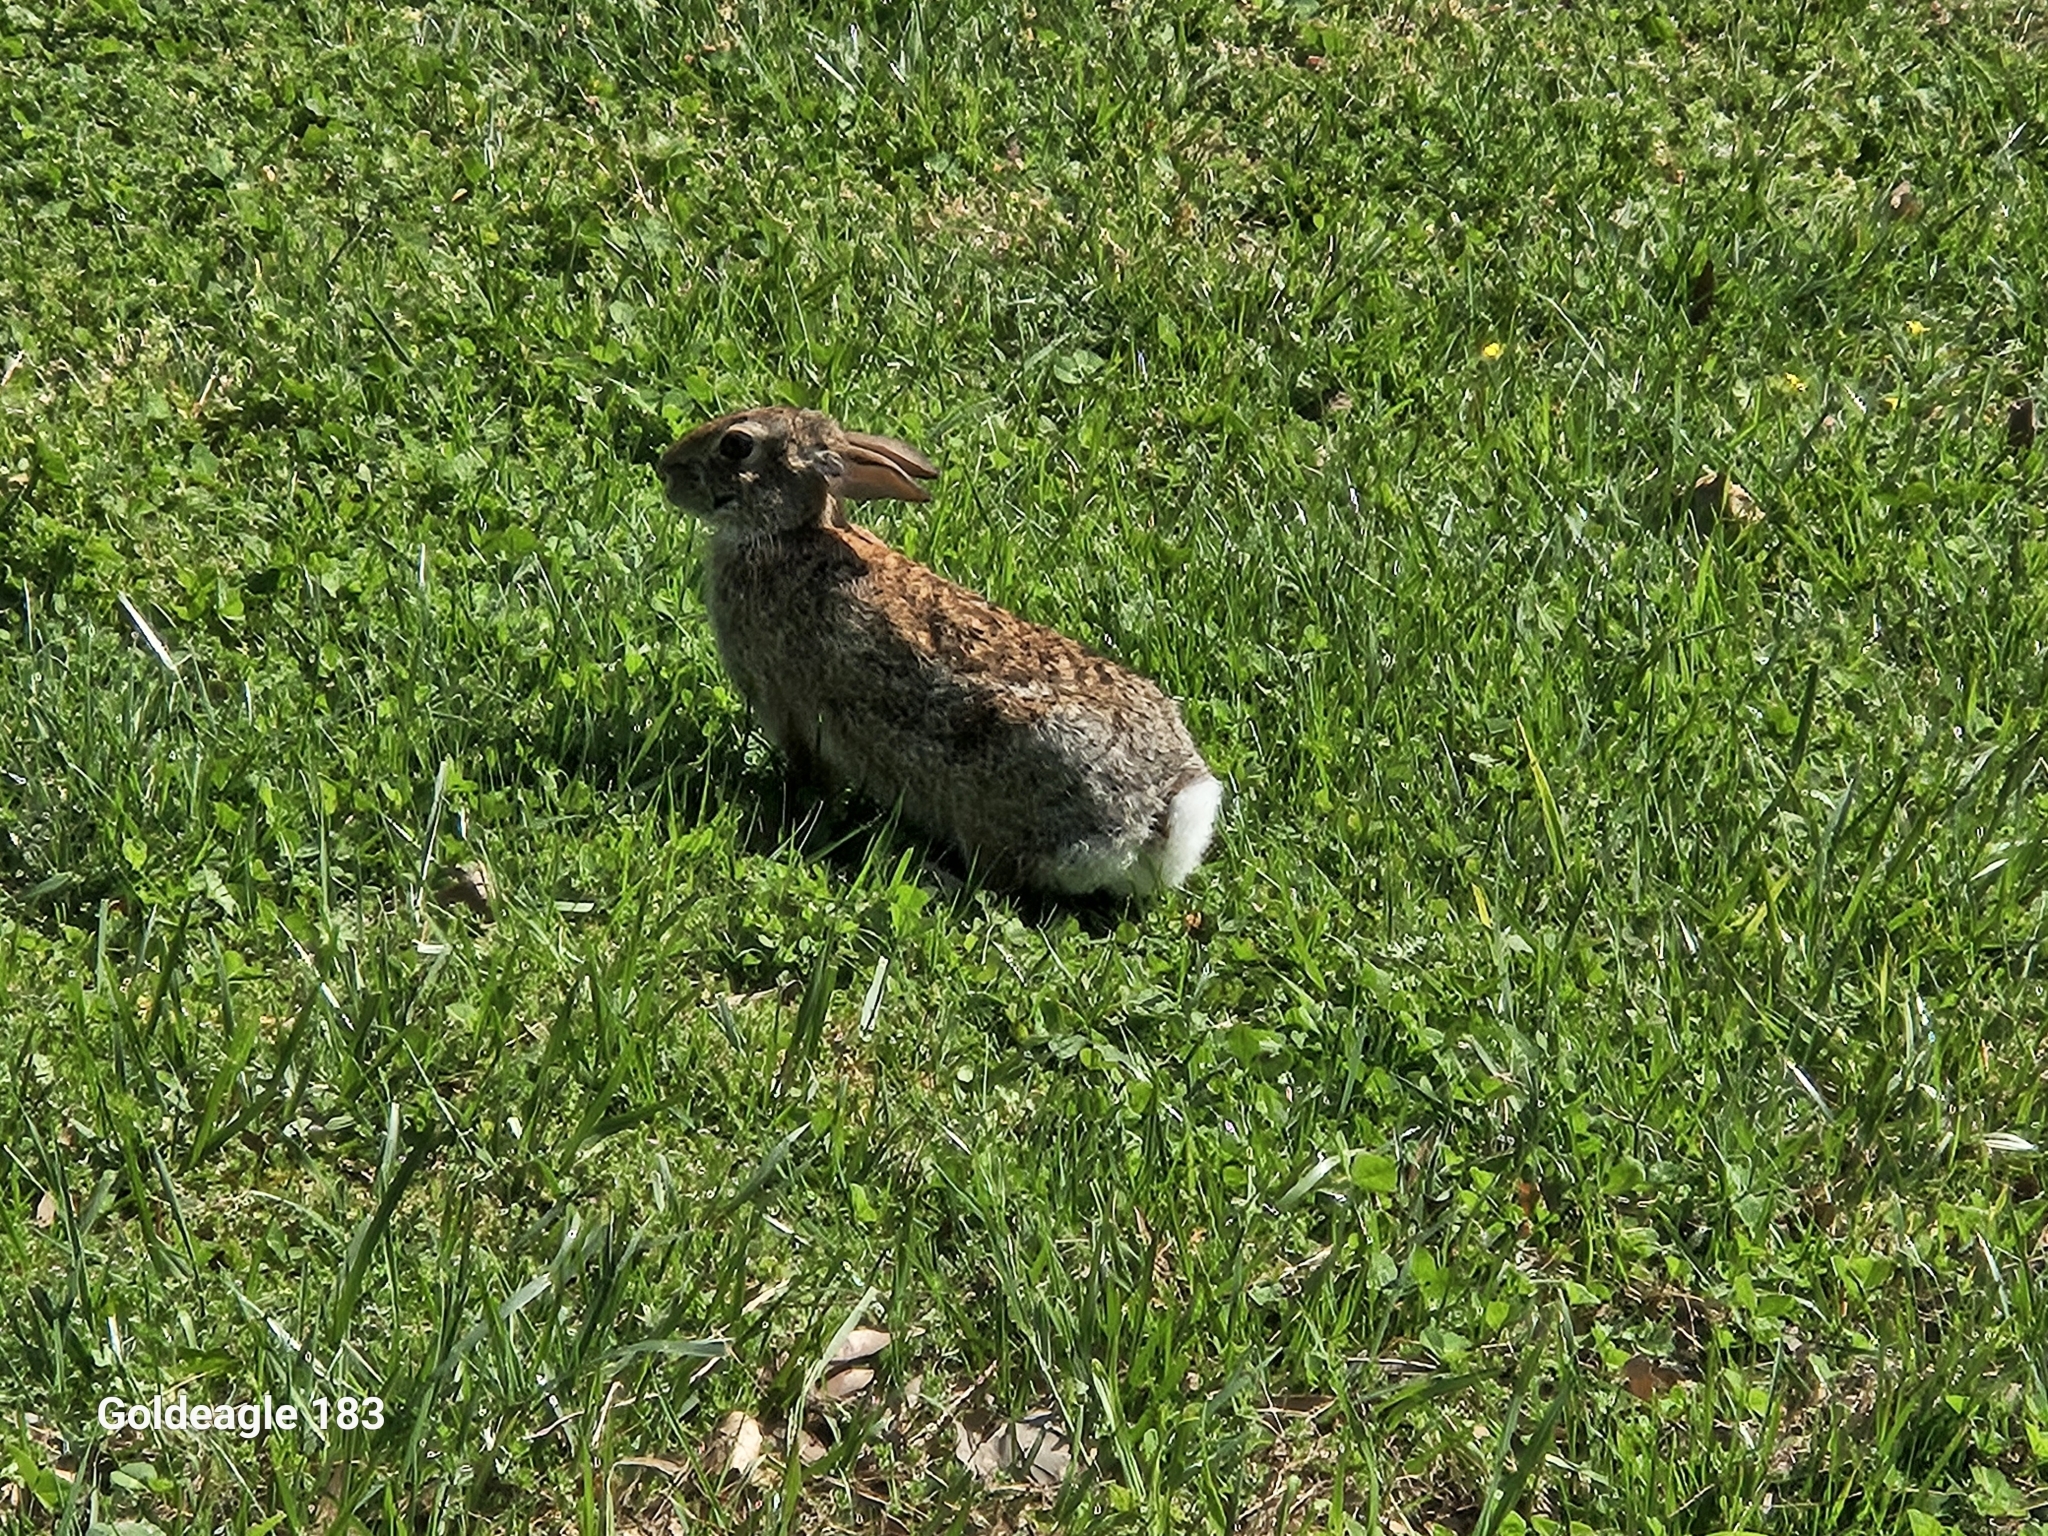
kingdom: Animalia
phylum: Chordata
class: Mammalia
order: Lagomorpha
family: Leporidae
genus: Sylvilagus
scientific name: Sylvilagus floridanus
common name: Eastern cottontail
